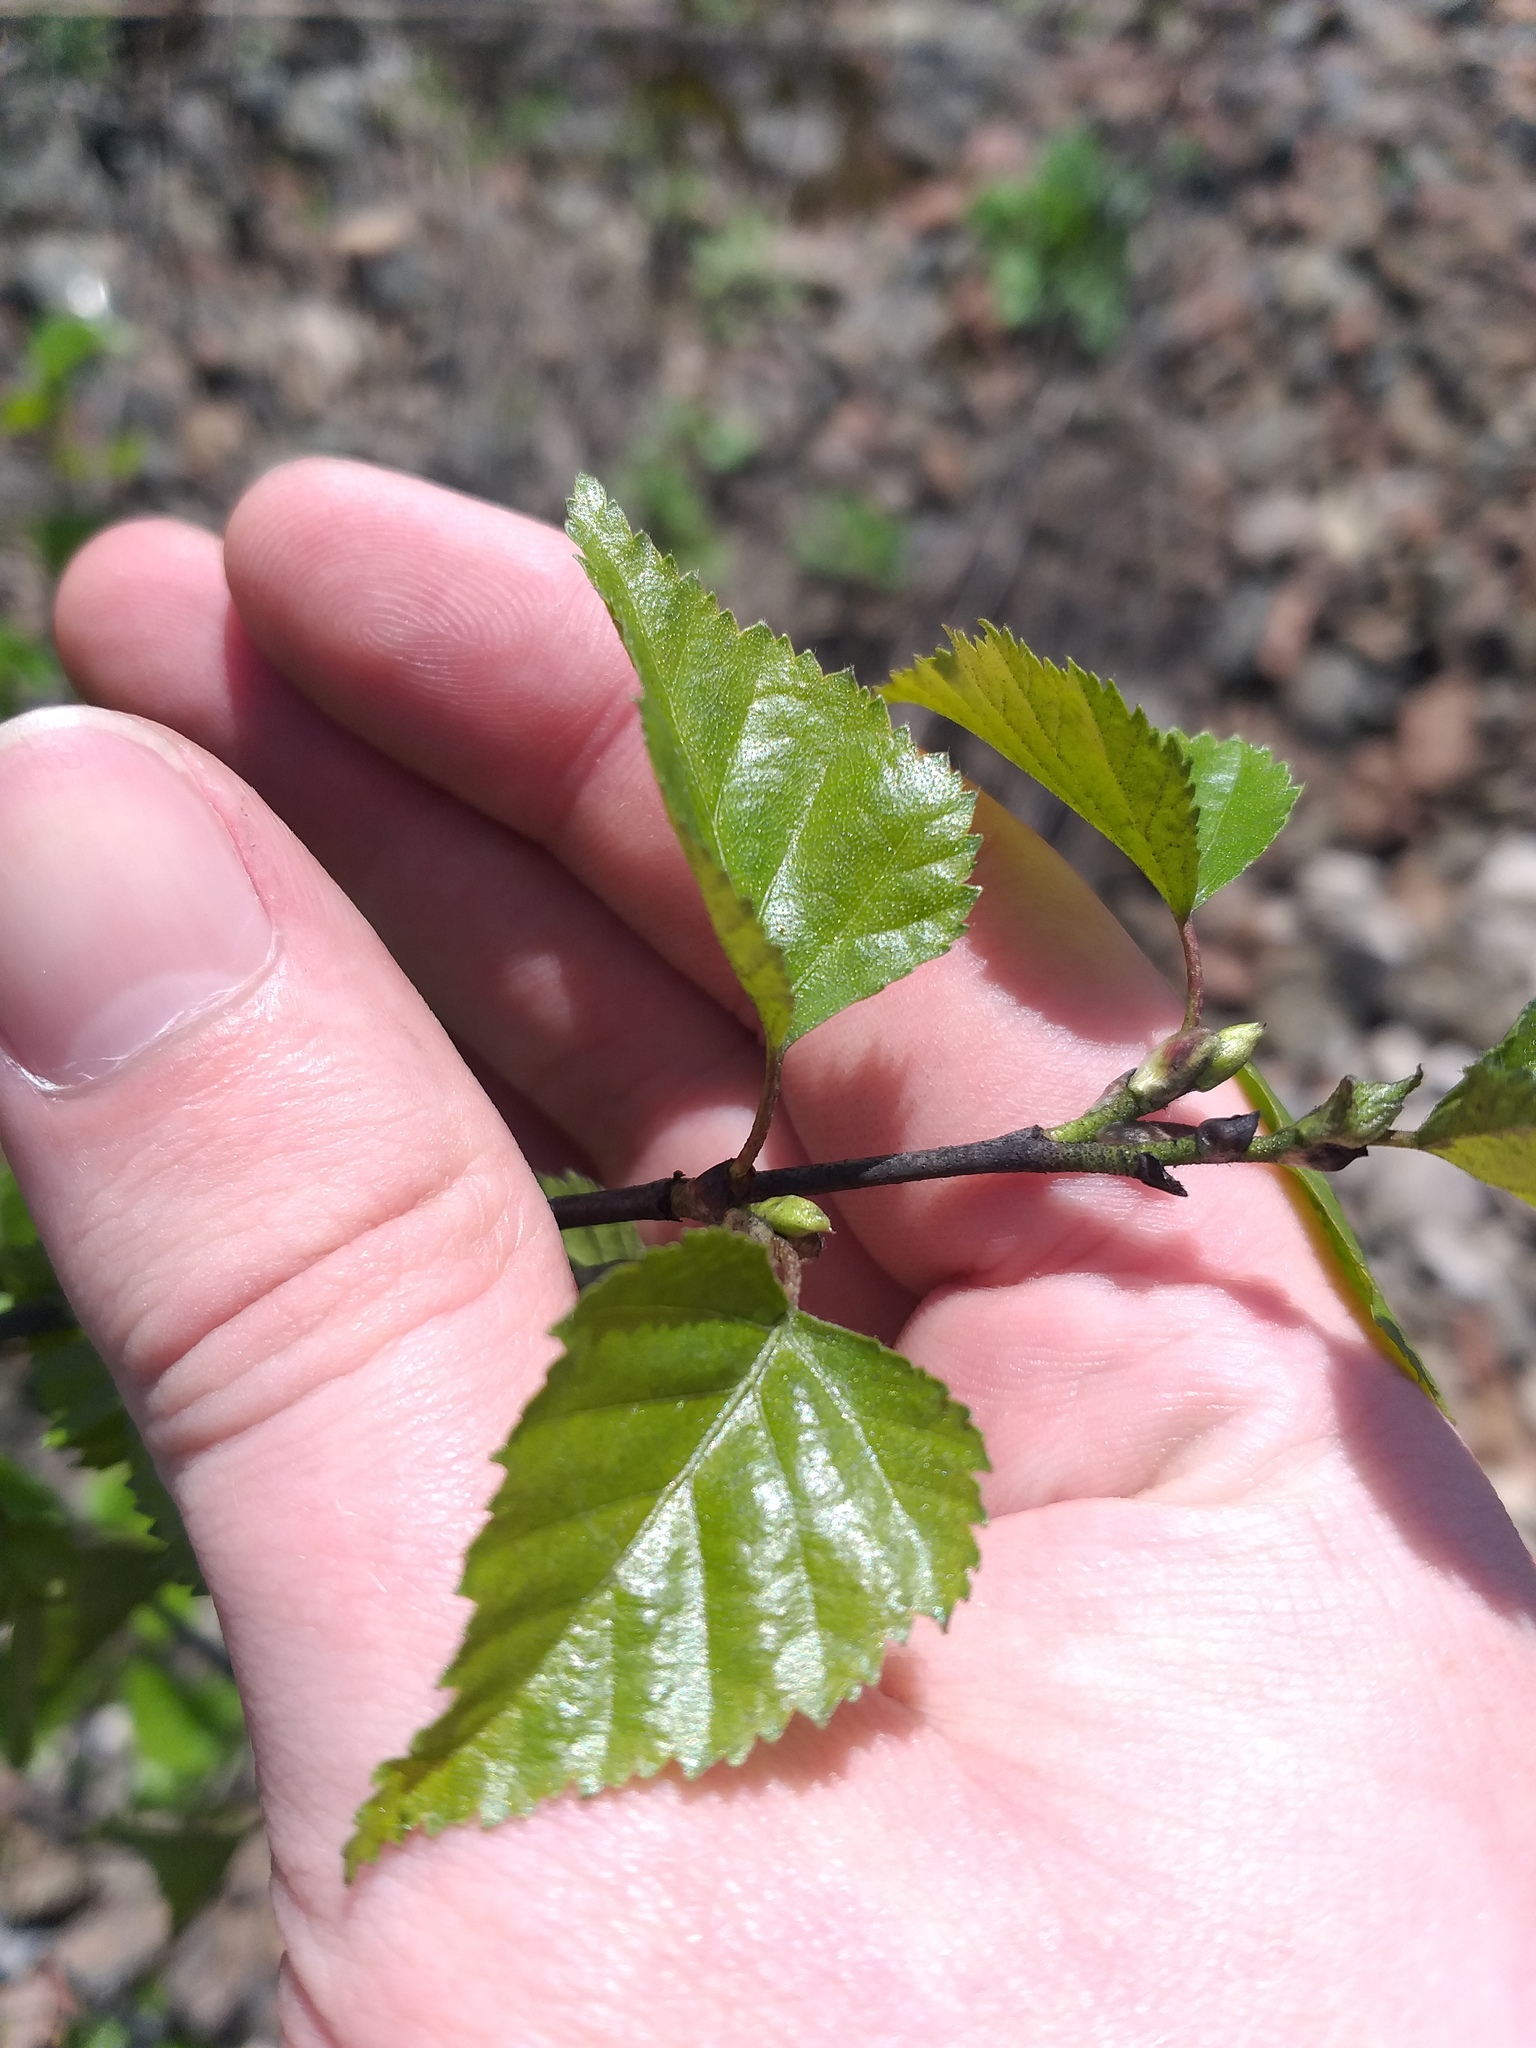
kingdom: Plantae
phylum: Tracheophyta
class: Magnoliopsida
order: Fagales
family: Betulaceae
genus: Betula
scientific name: Betula pendula
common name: Silver birch
